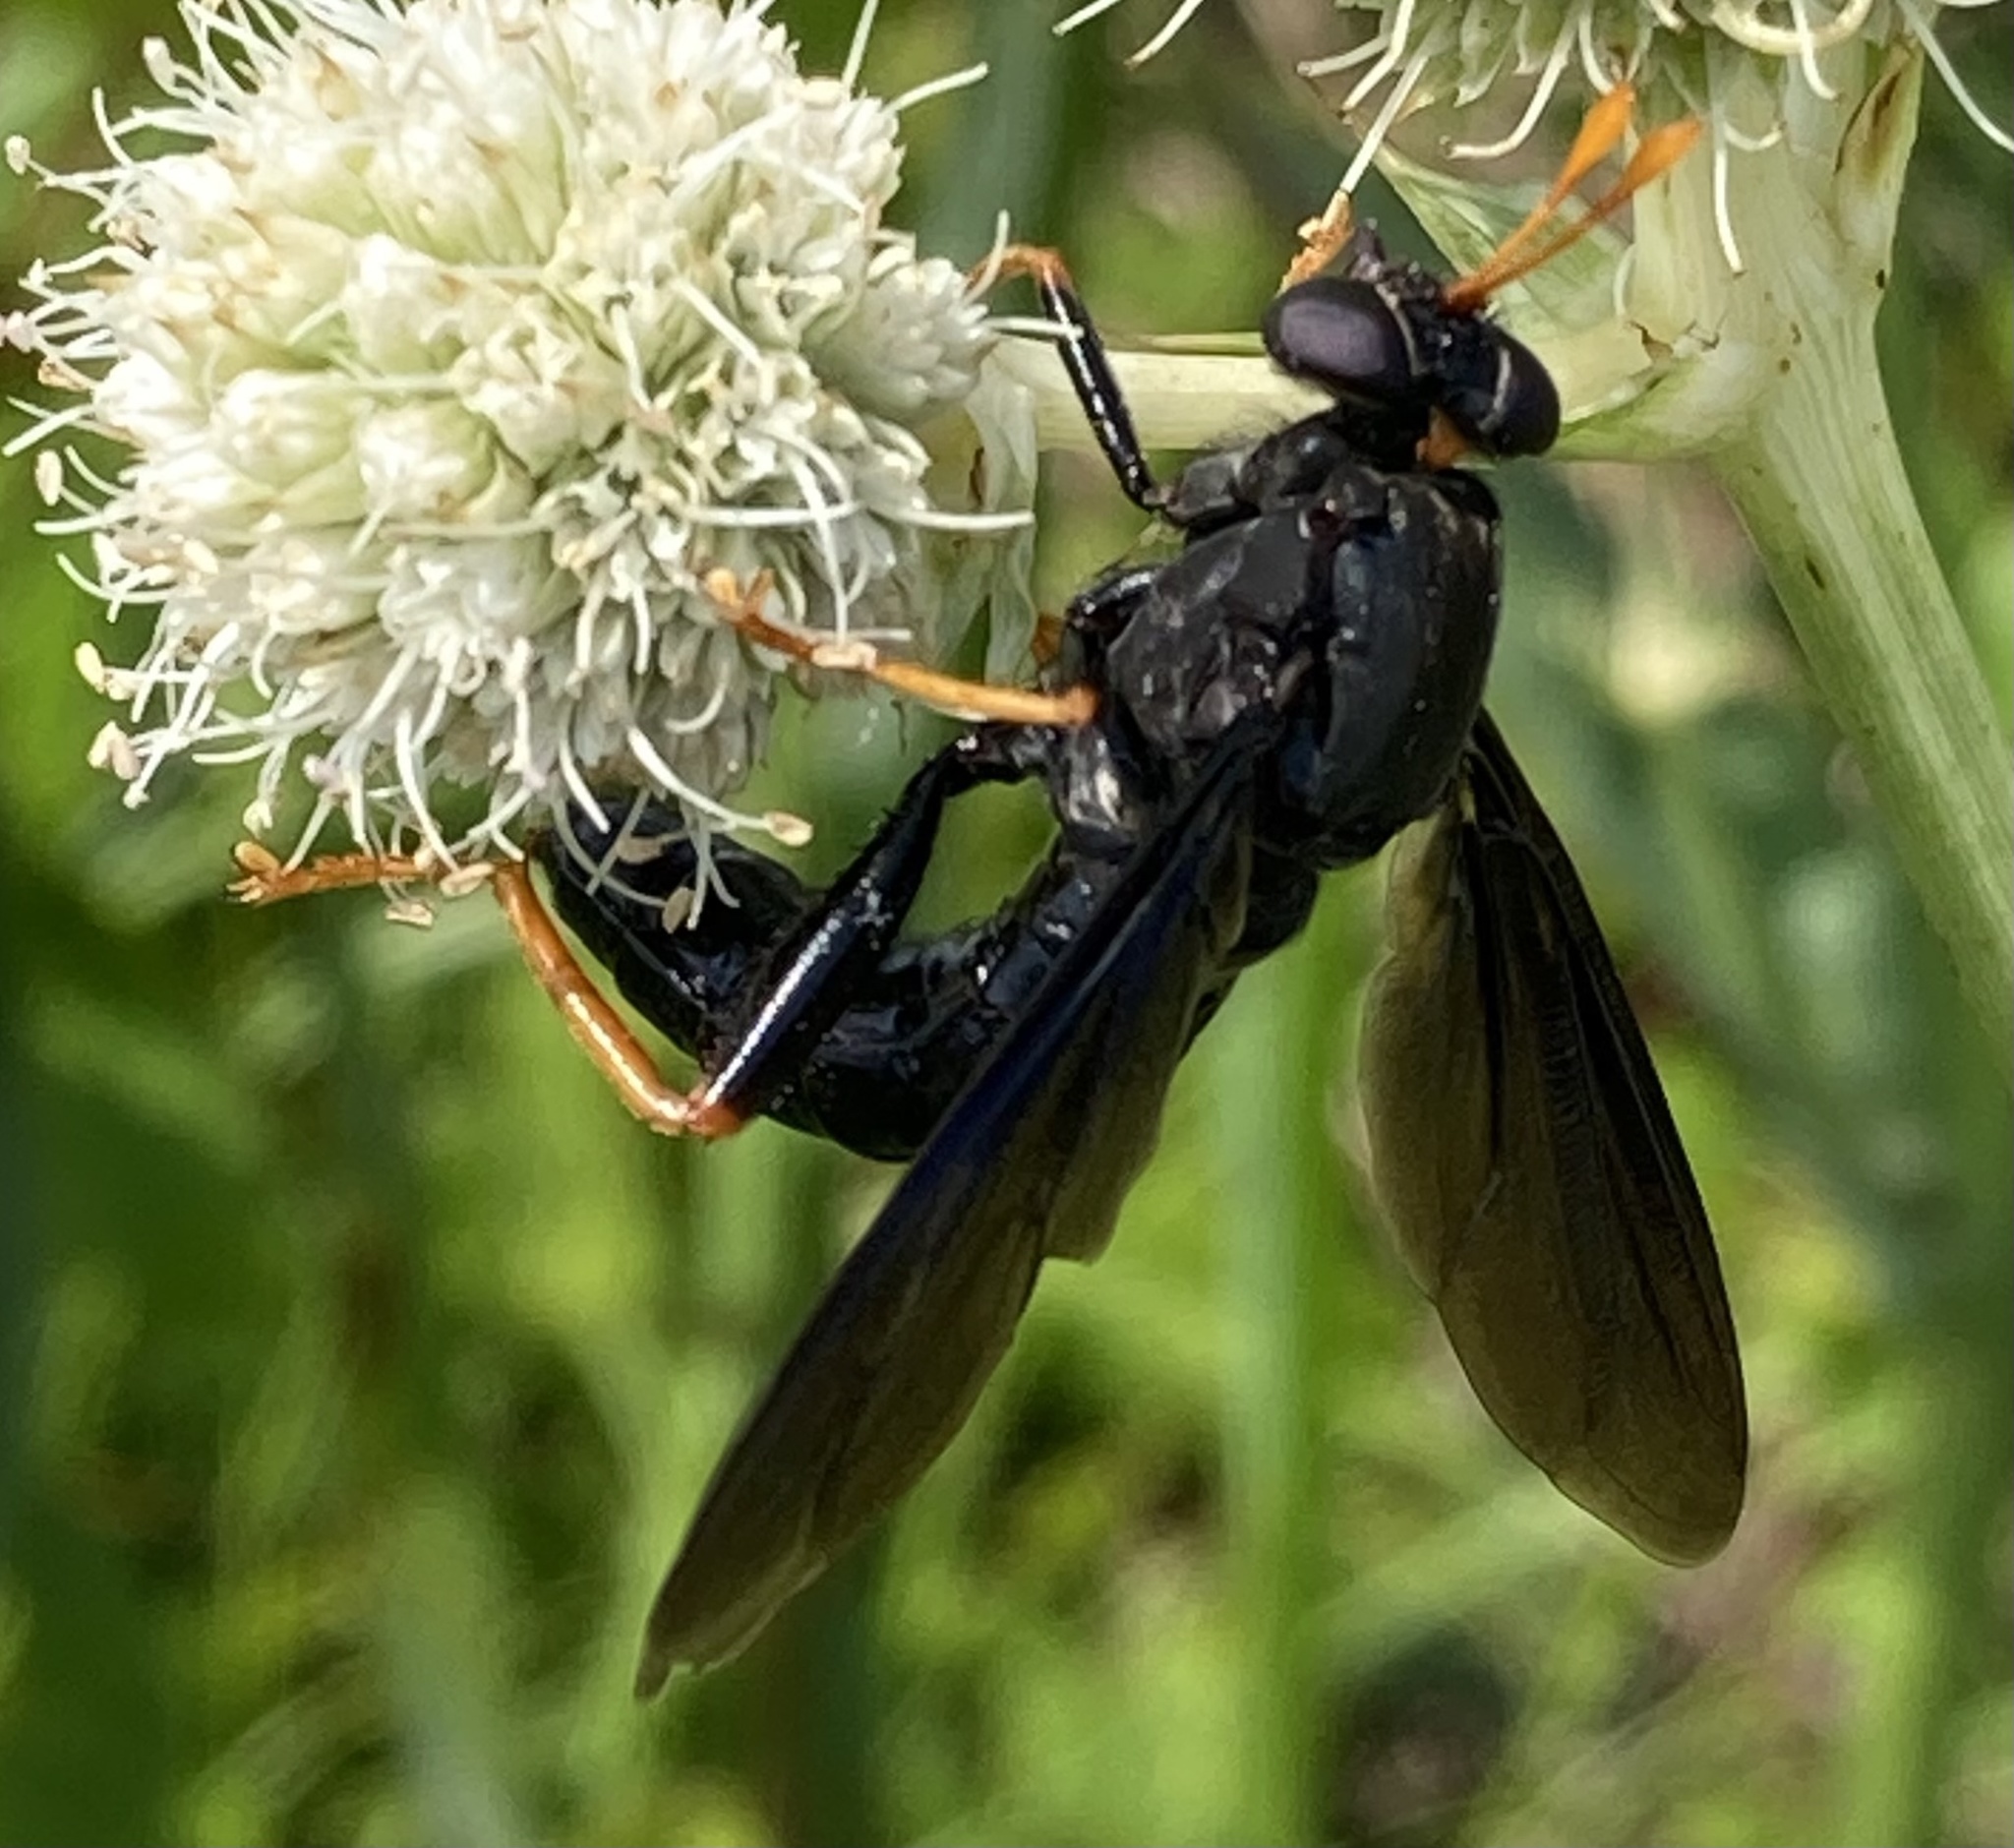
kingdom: Animalia
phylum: Arthropoda
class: Insecta
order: Diptera
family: Mydidae
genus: Mydas
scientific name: Mydas tibialis
